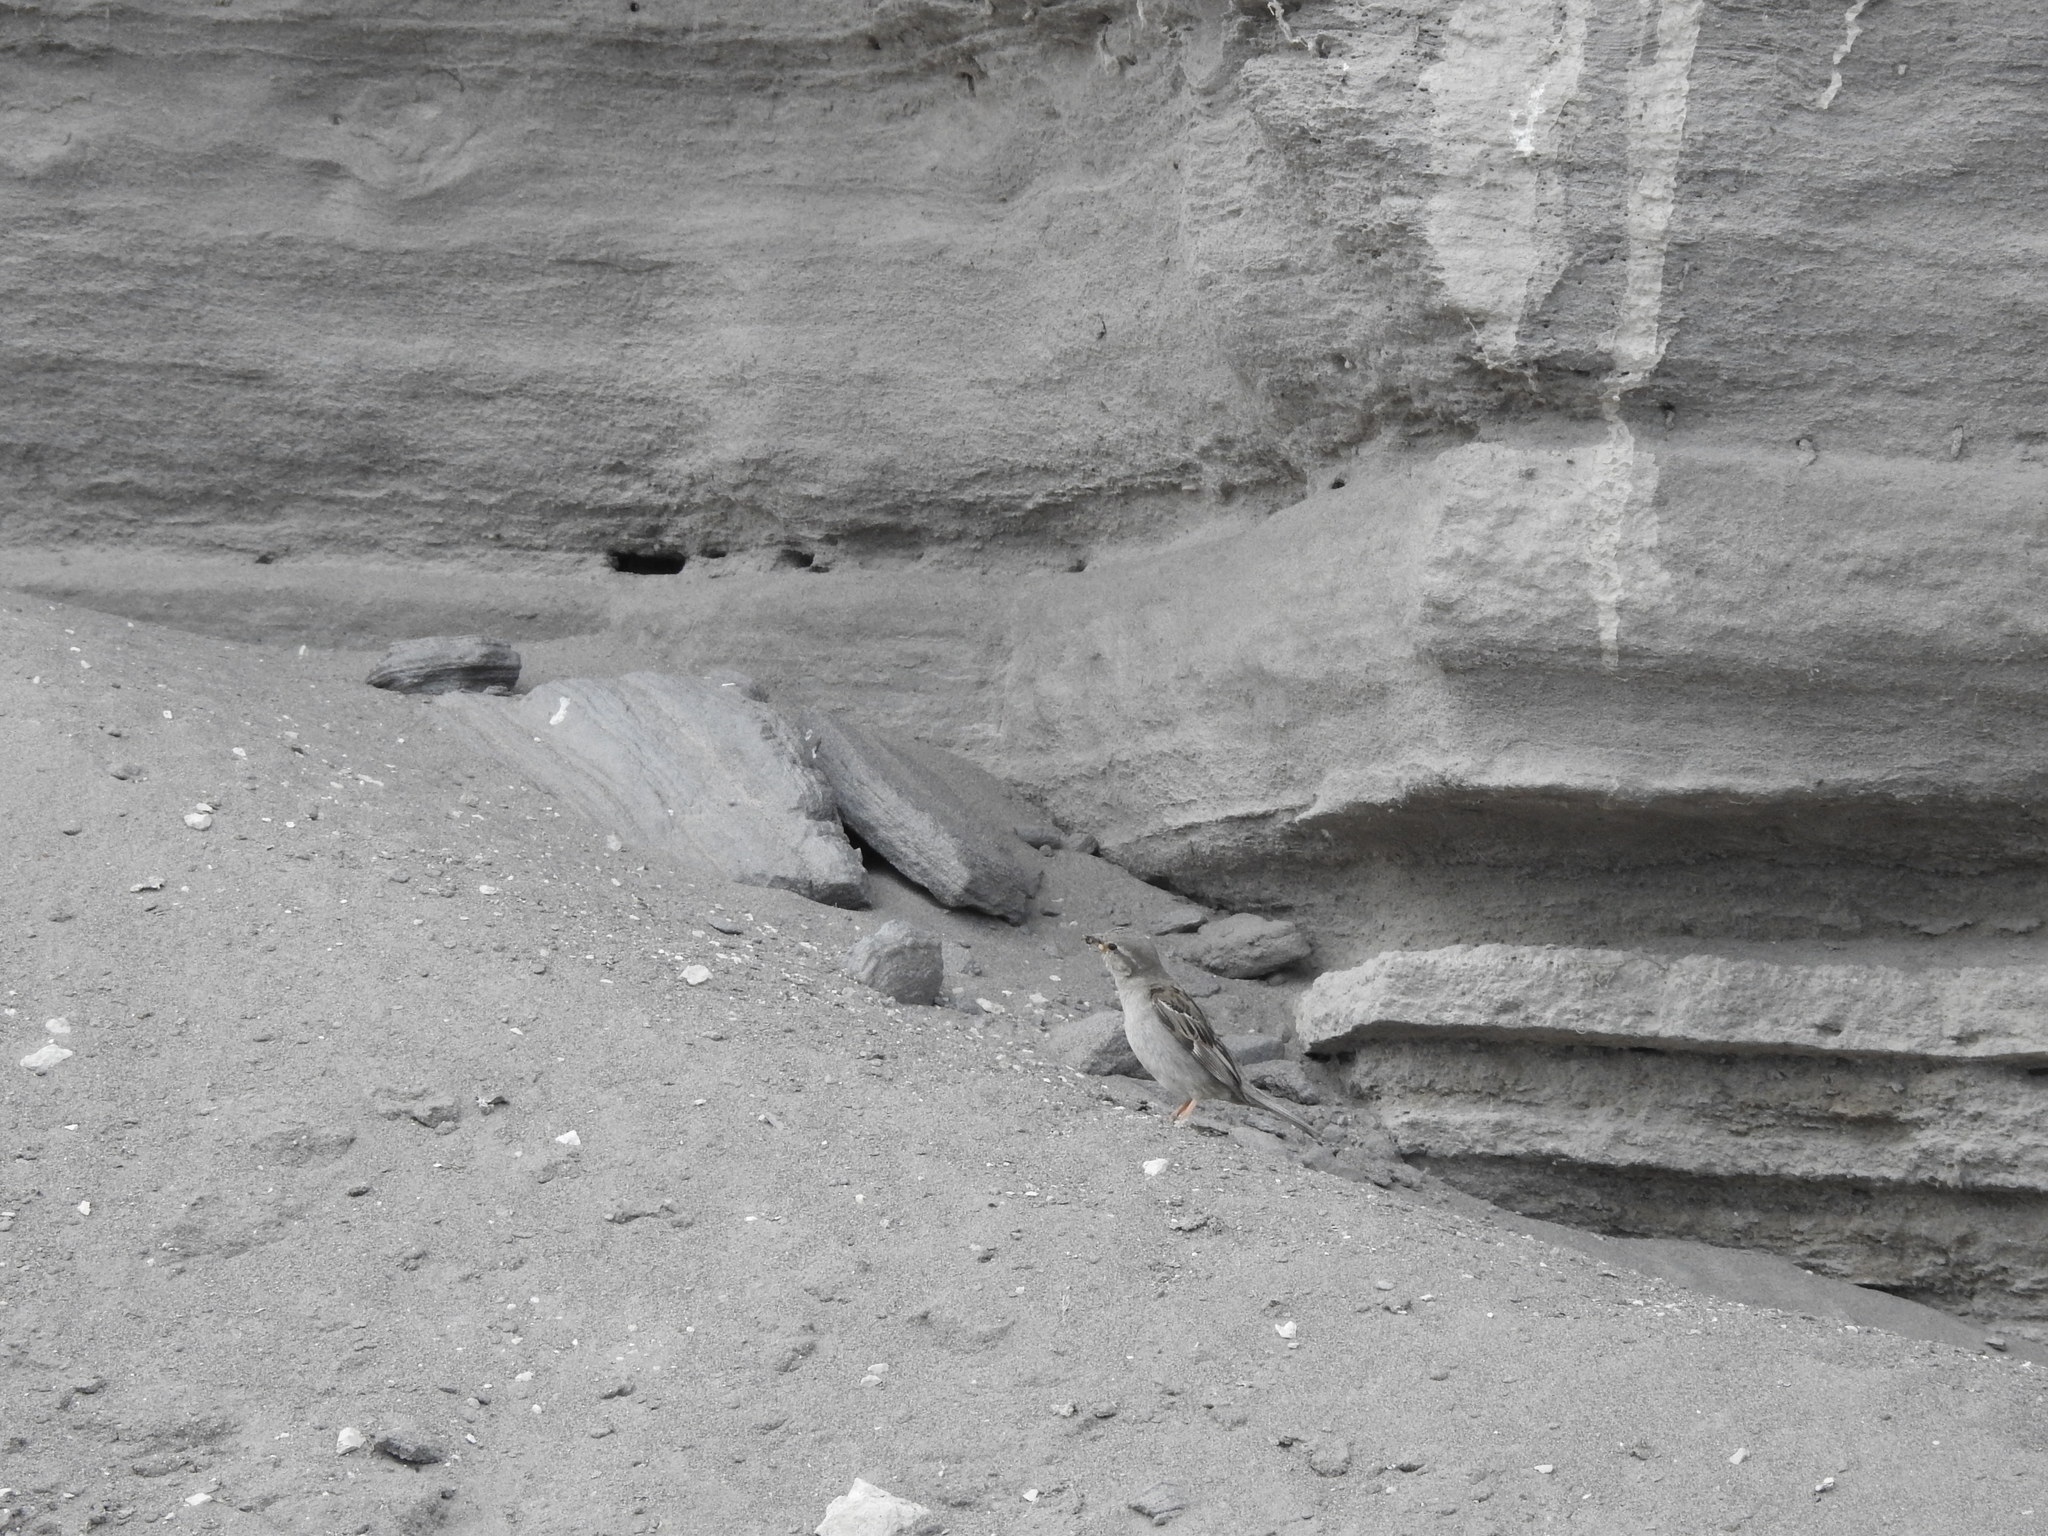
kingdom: Animalia
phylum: Chordata
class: Aves
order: Passeriformes
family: Passeridae
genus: Passer
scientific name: Passer domesticus
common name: House sparrow
